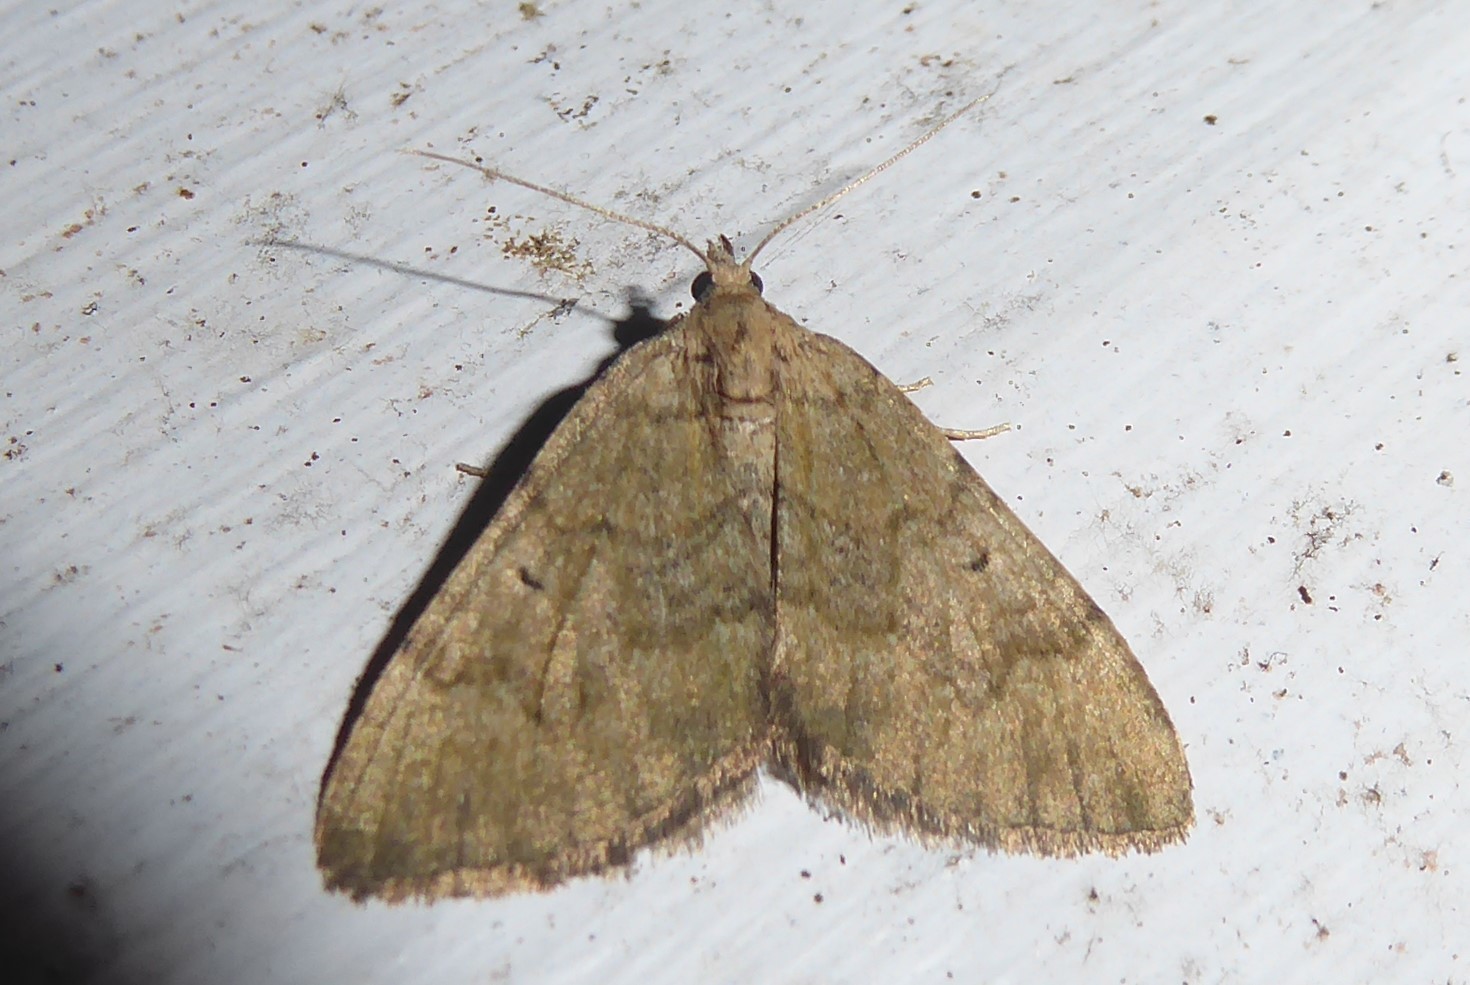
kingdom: Animalia
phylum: Arthropoda
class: Insecta
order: Lepidoptera
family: Geometridae
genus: Epyaxa
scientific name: Epyaxa rosearia
